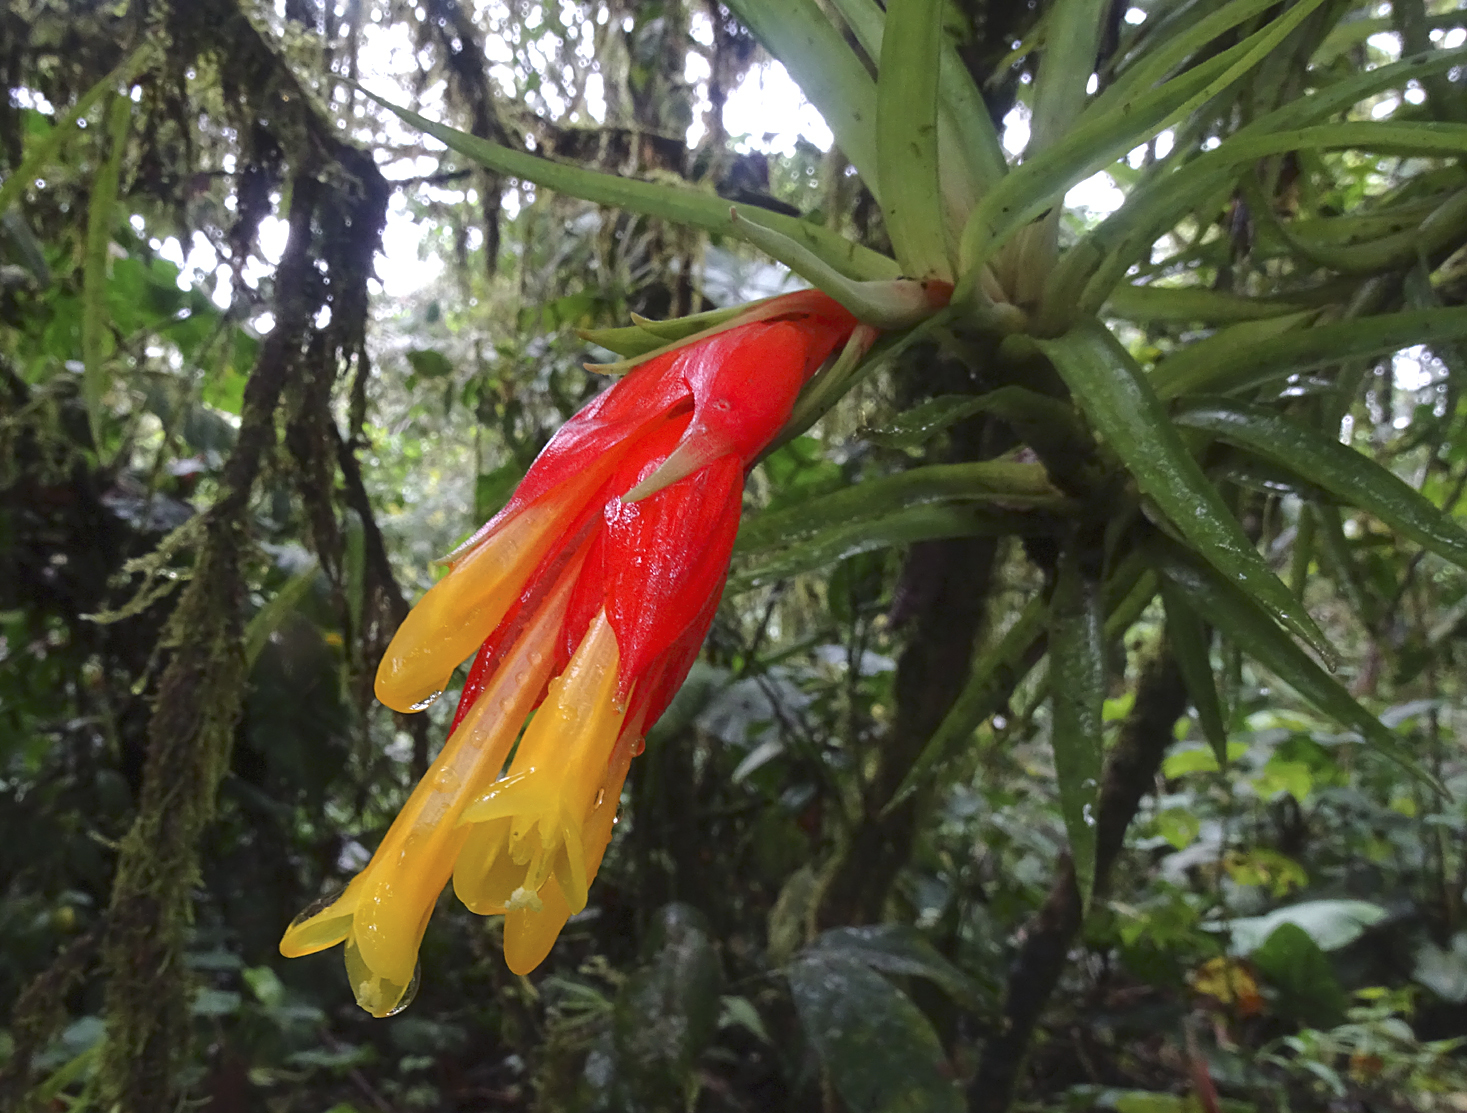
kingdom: Plantae
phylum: Tracheophyta
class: Liliopsida
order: Poales
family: Bromeliaceae
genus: Guzmania
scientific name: Guzmania angustifolia
